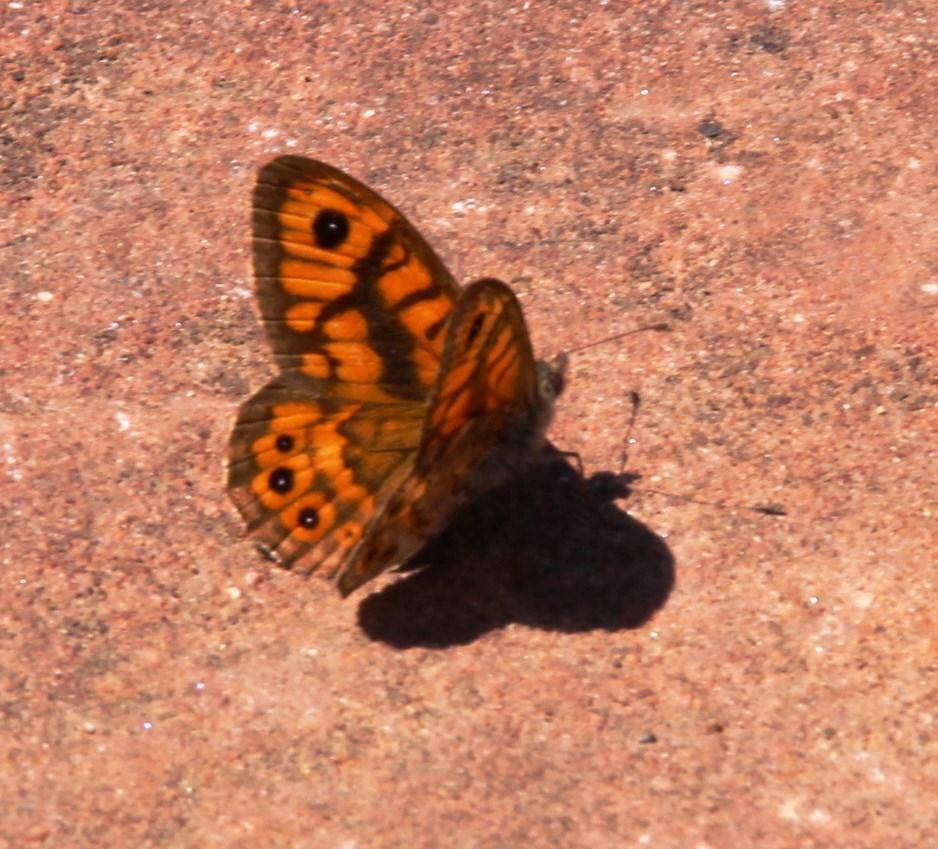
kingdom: Animalia
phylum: Arthropoda
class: Insecta
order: Lepidoptera
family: Nymphalidae
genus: Pararge
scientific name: Pararge Lasiommata megera
